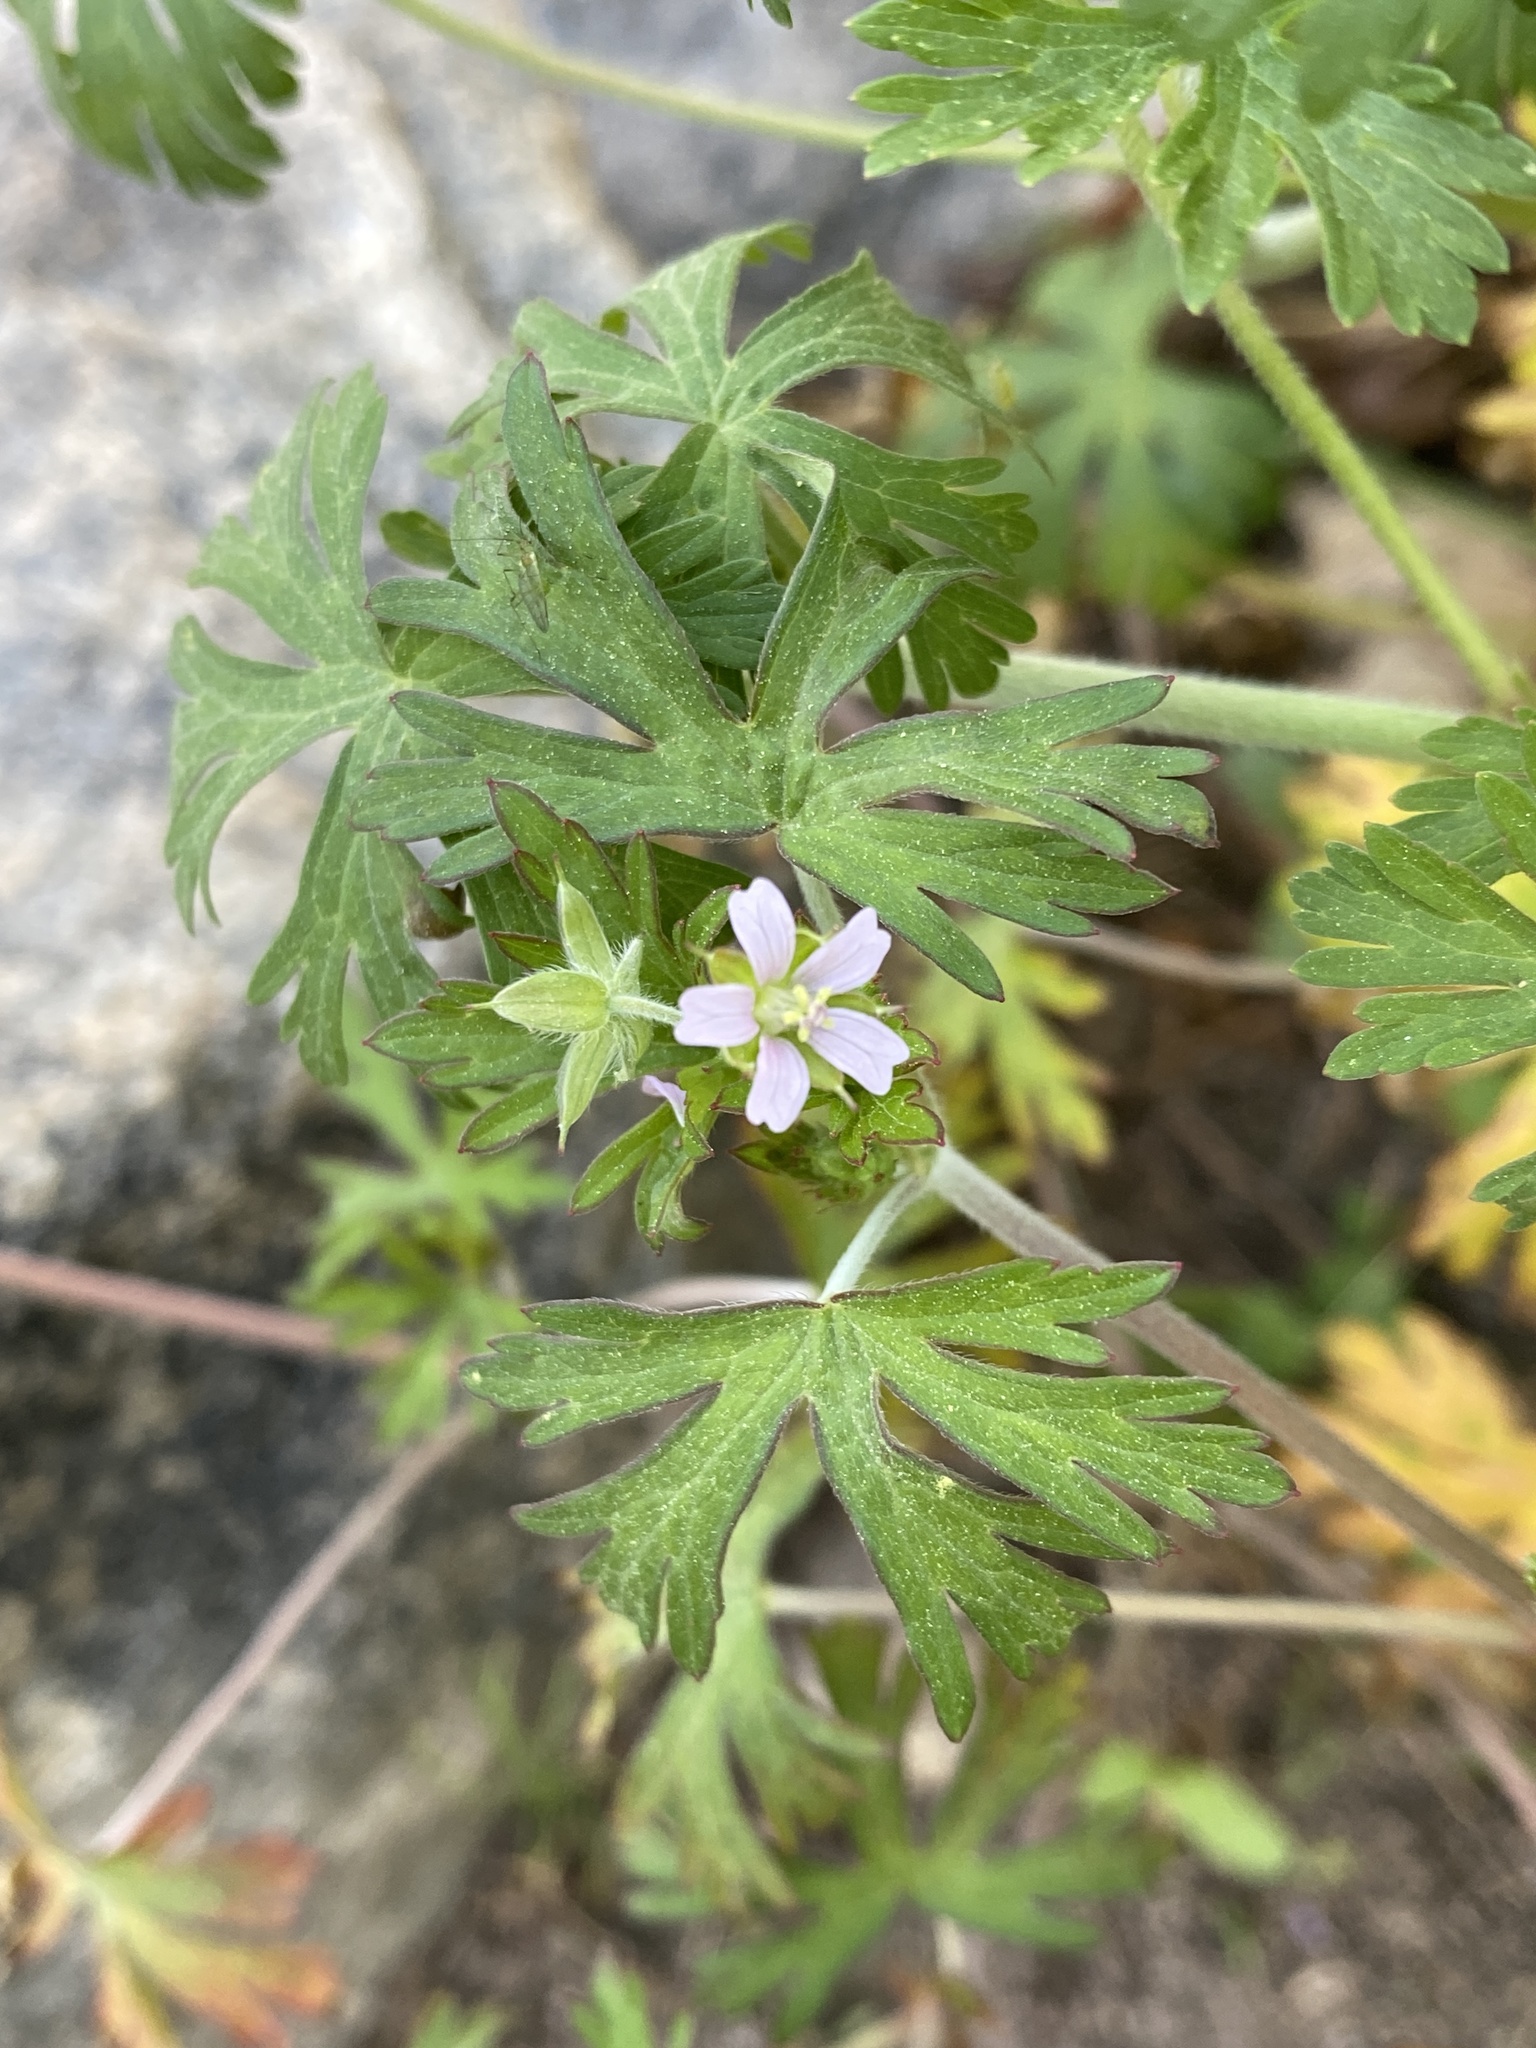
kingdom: Plantae
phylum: Tracheophyta
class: Magnoliopsida
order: Geraniales
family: Geraniaceae
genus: Geranium
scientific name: Geranium carolinianum
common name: Carolina crane's-bill
